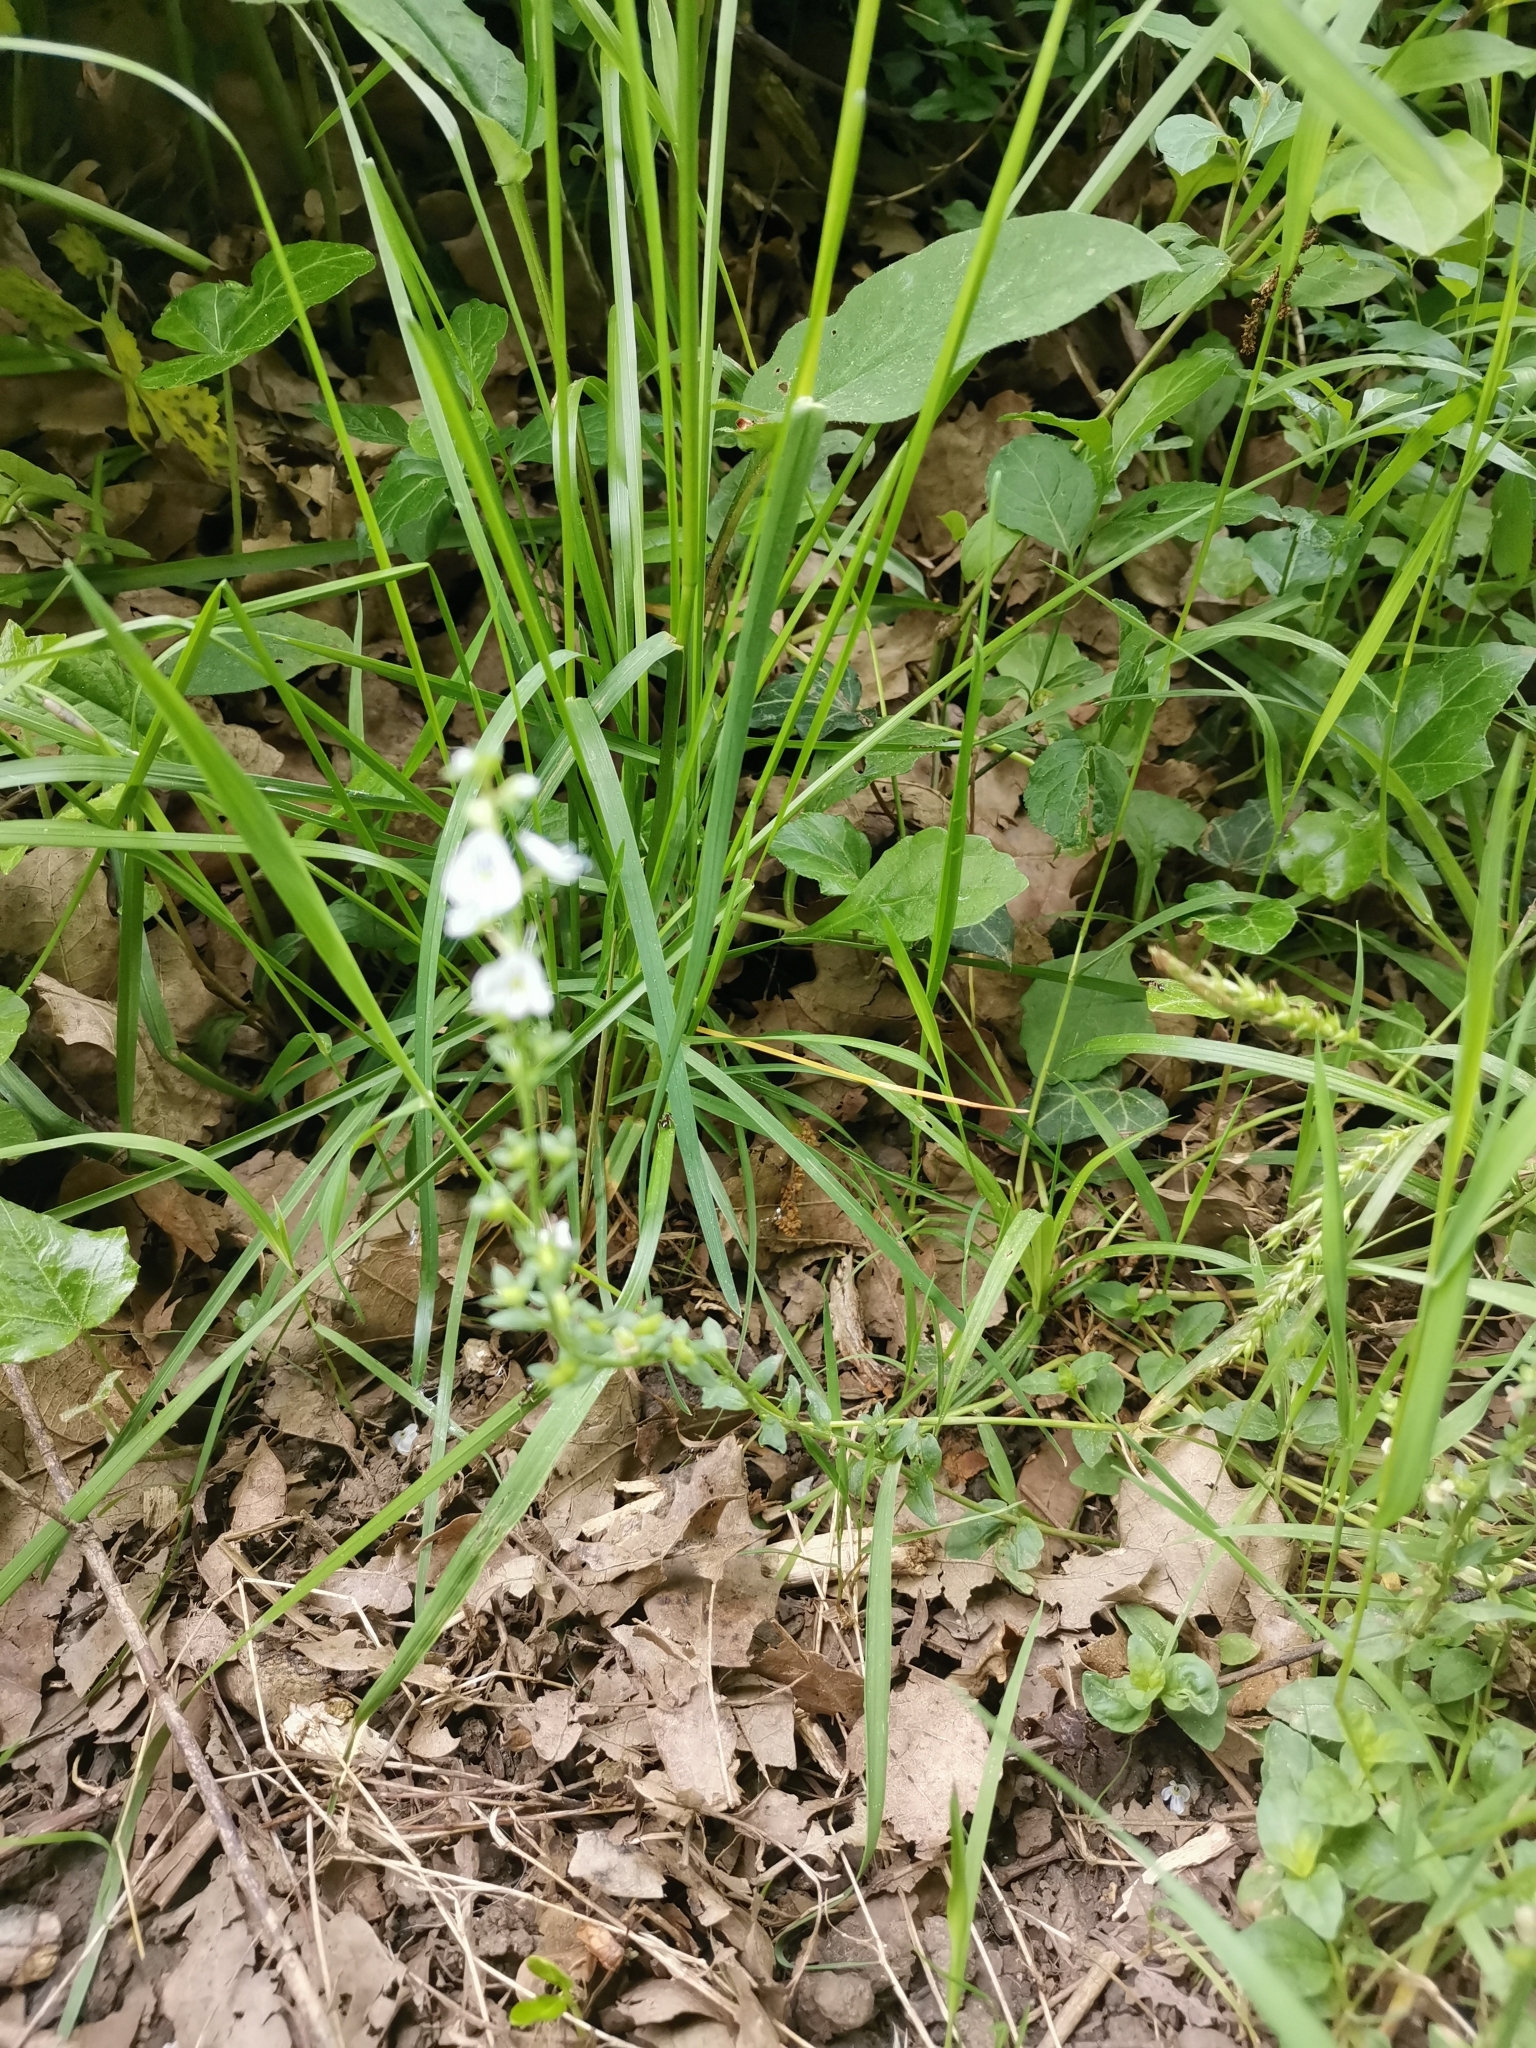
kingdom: Plantae
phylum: Tracheophyta
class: Magnoliopsida
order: Lamiales
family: Plantaginaceae
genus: Veronica
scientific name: Veronica serpyllifolia
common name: Thyme-leaved speedwell
